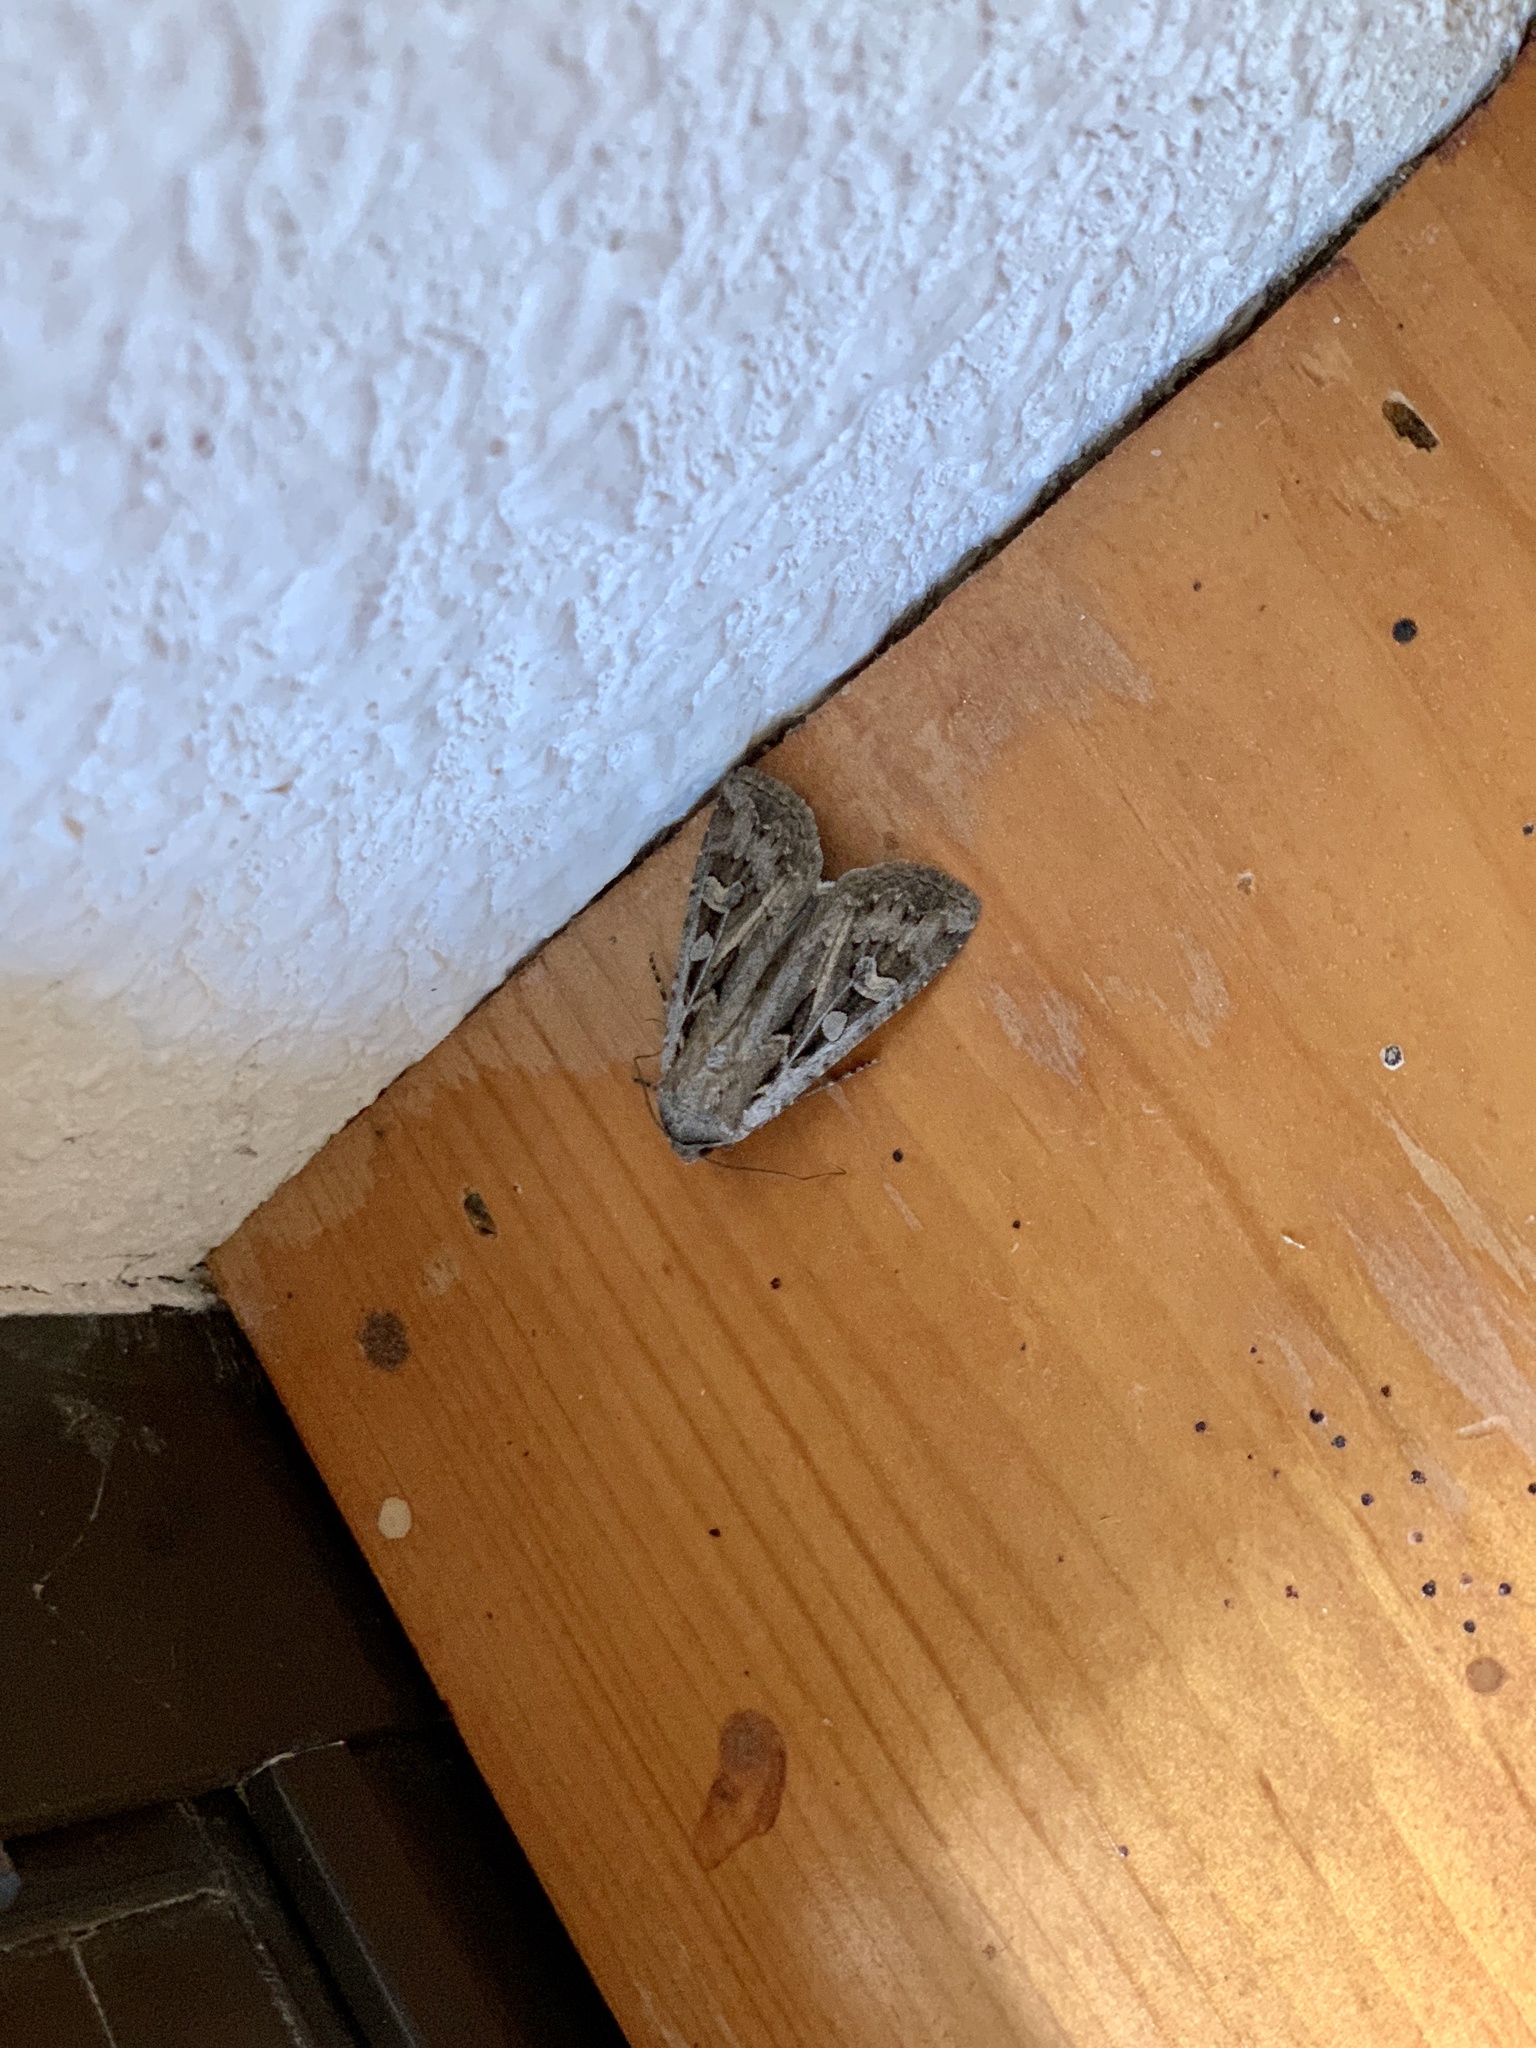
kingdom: Animalia
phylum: Arthropoda
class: Insecta
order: Lepidoptera
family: Noctuidae
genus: Euxoa
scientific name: Euxoa auxiliaris
